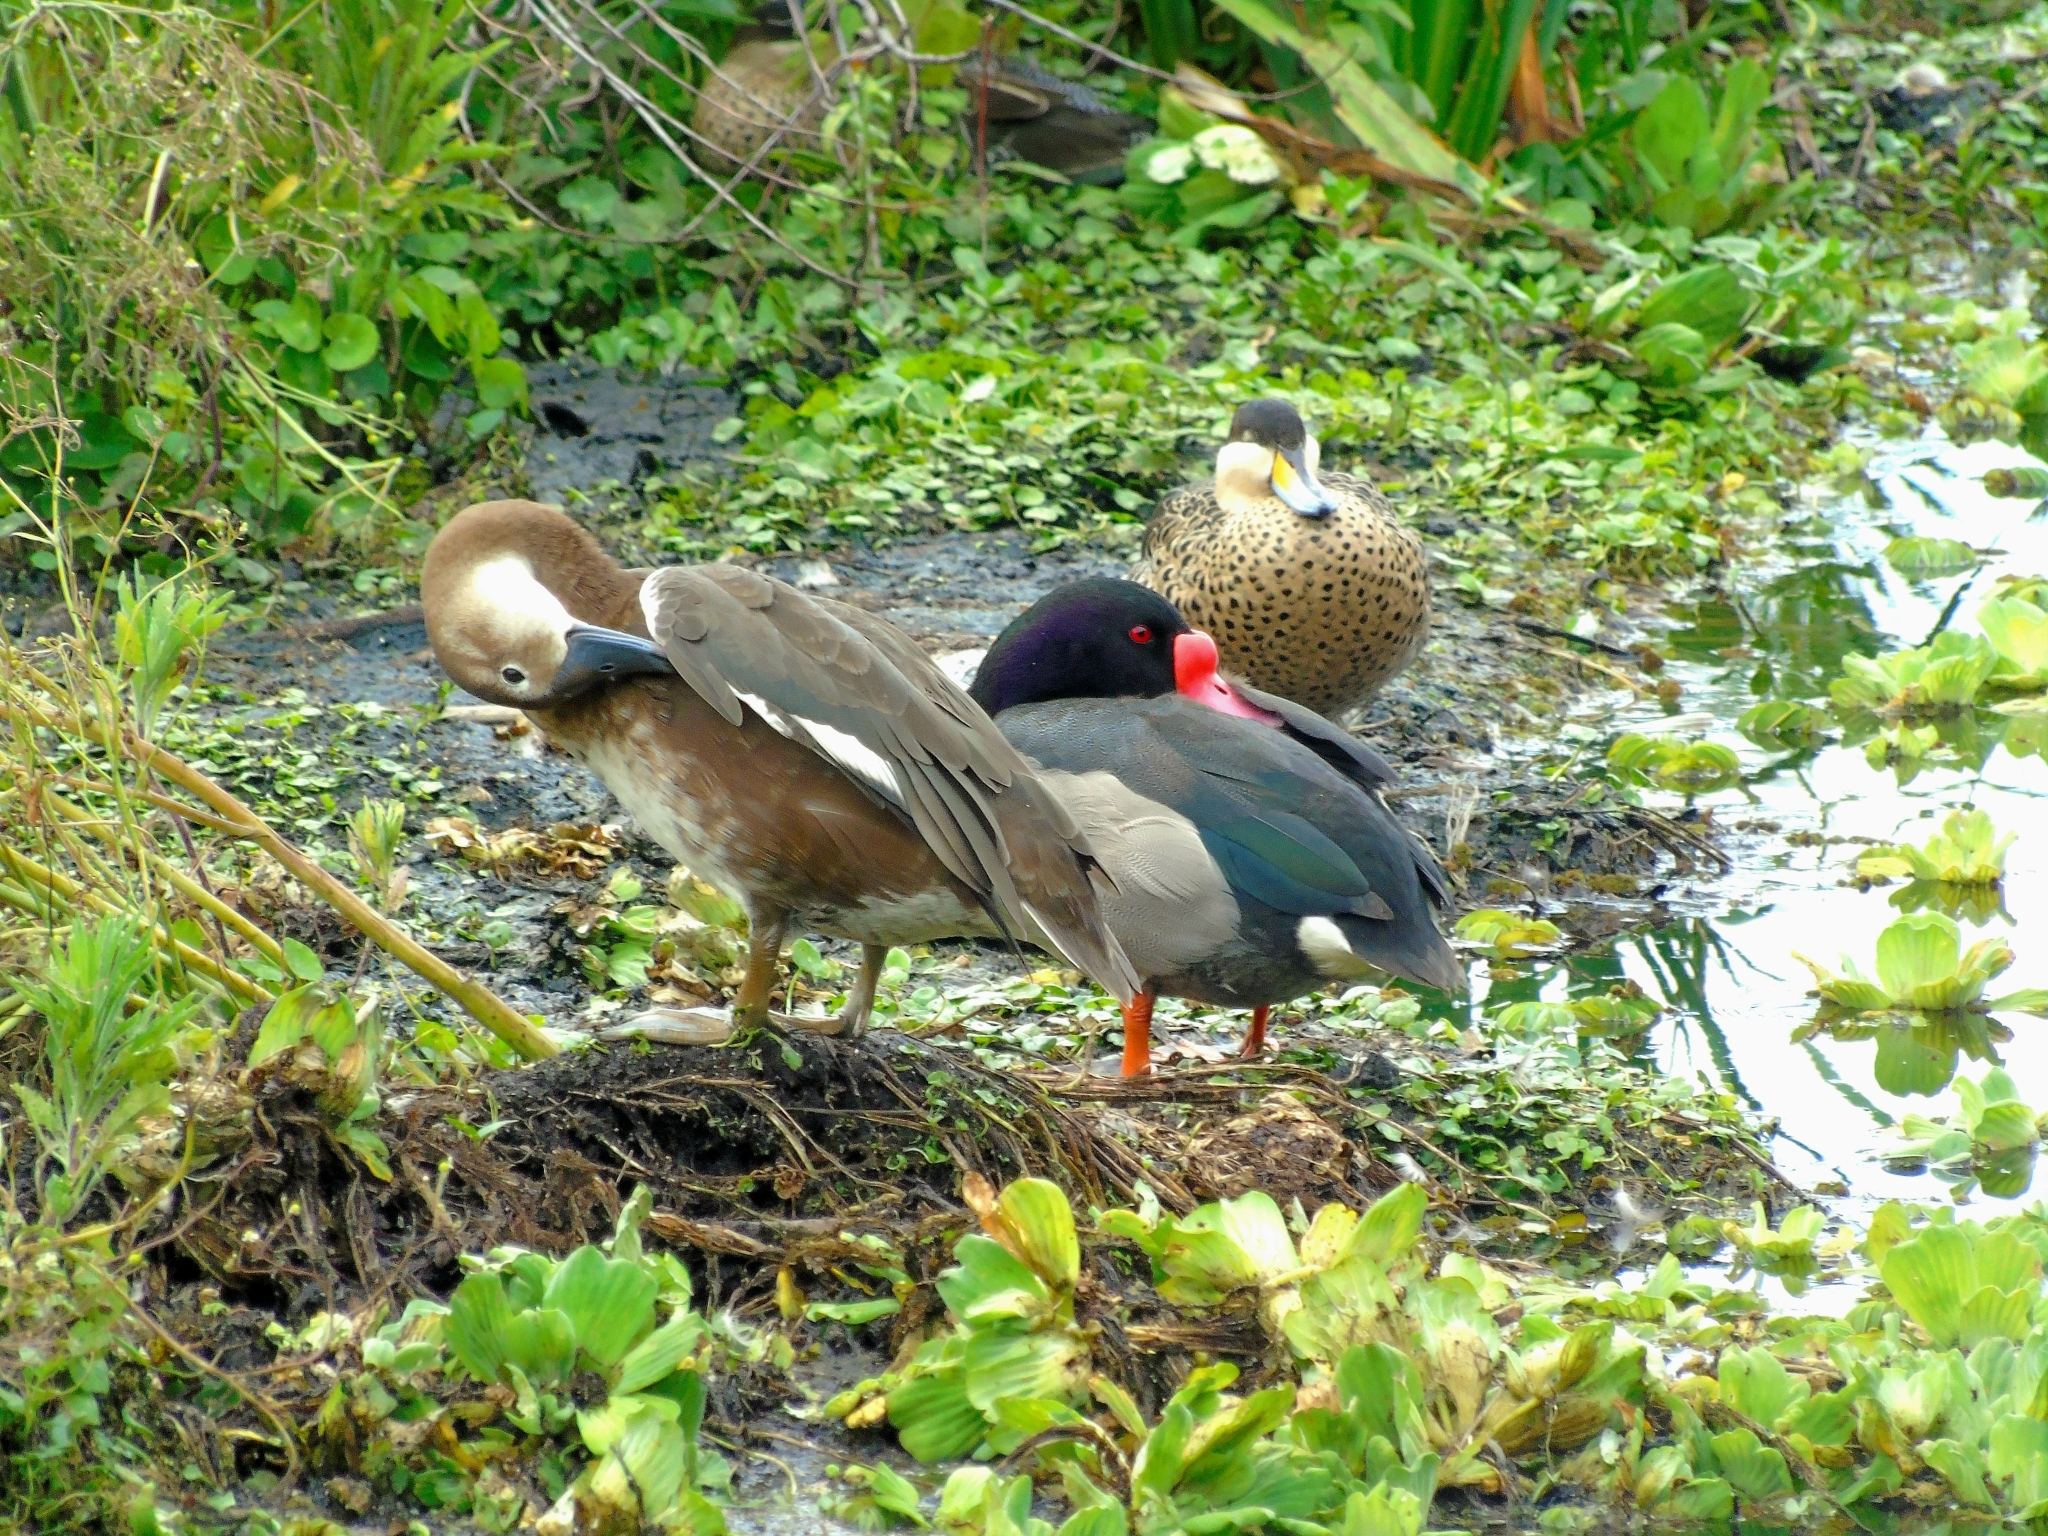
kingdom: Animalia
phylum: Chordata
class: Aves
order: Anseriformes
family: Anatidae
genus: Spatula
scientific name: Spatula versicolor
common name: Silver teal
